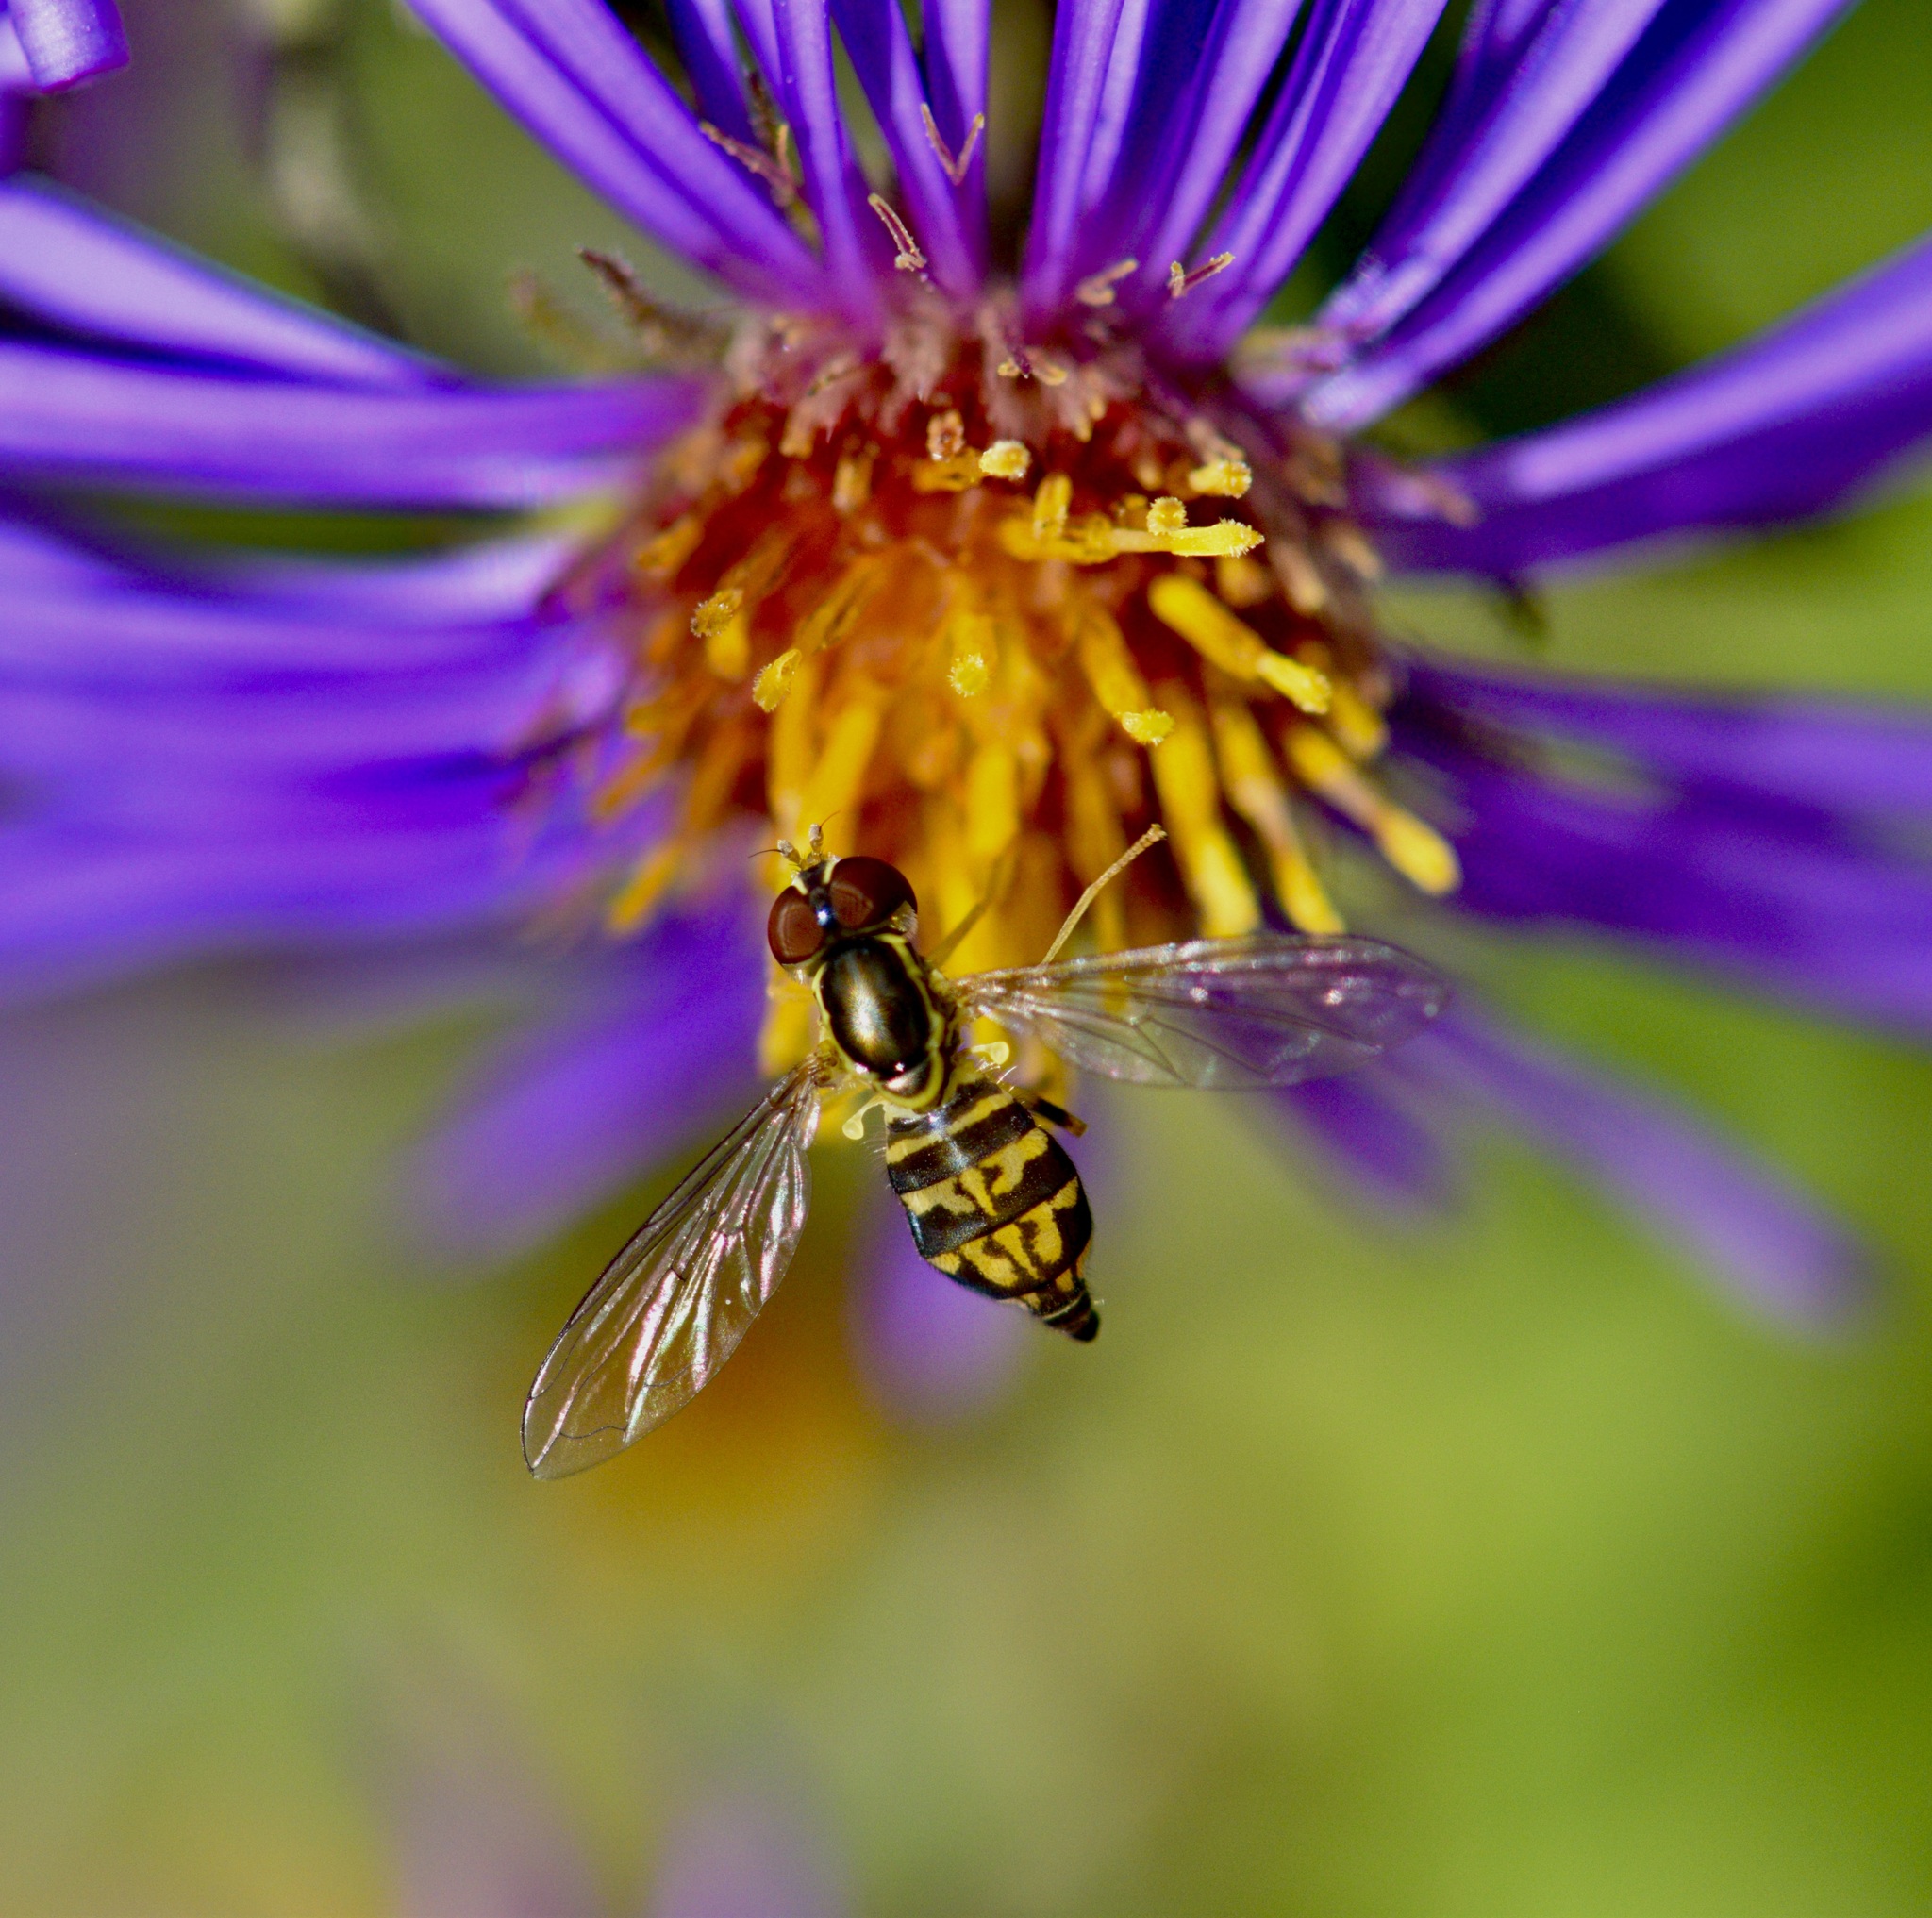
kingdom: Animalia
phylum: Arthropoda
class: Insecta
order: Diptera
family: Syrphidae
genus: Toxomerus
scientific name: Toxomerus geminatus
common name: Eastern calligrapher
